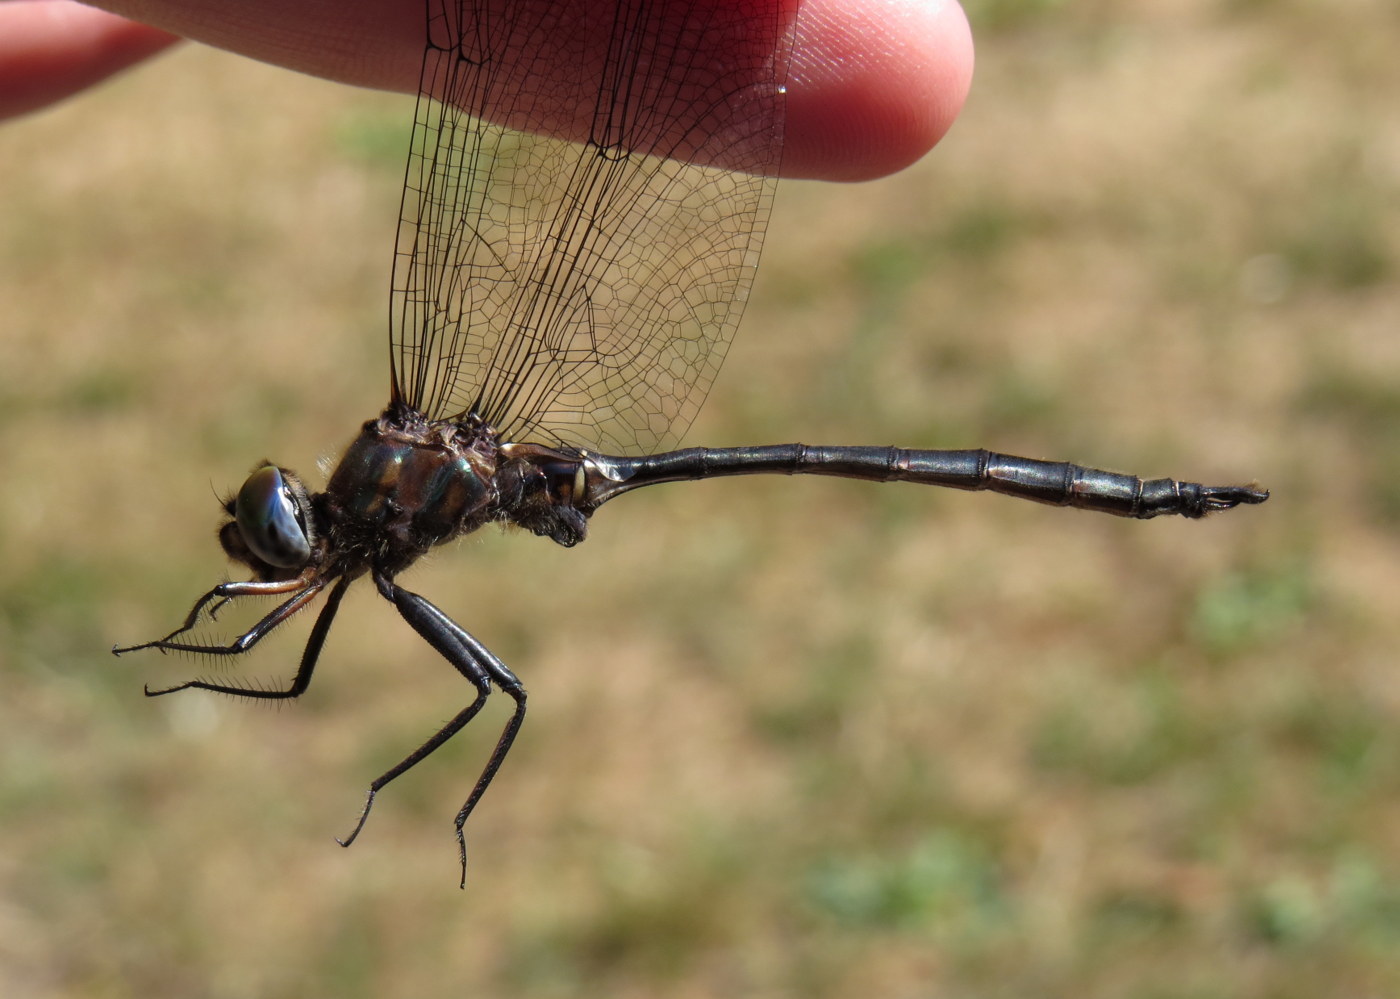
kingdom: Animalia
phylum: Arthropoda
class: Insecta
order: Odonata
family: Corduliidae
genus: Somatochlora
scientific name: Somatochlora williamsoni
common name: Williamson's emerald
